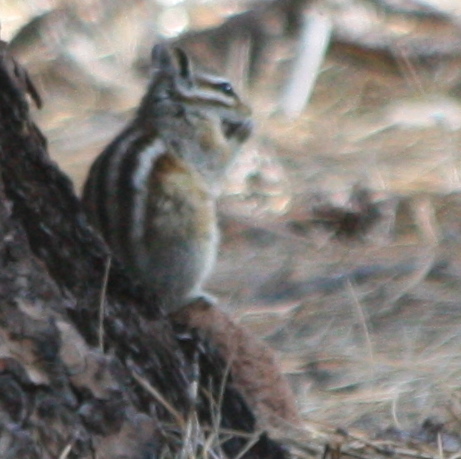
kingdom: Animalia
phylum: Chordata
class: Mammalia
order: Rodentia
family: Sciuridae
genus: Tamias
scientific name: Tamias cinereicollis
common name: Gray-collared chipmunk
